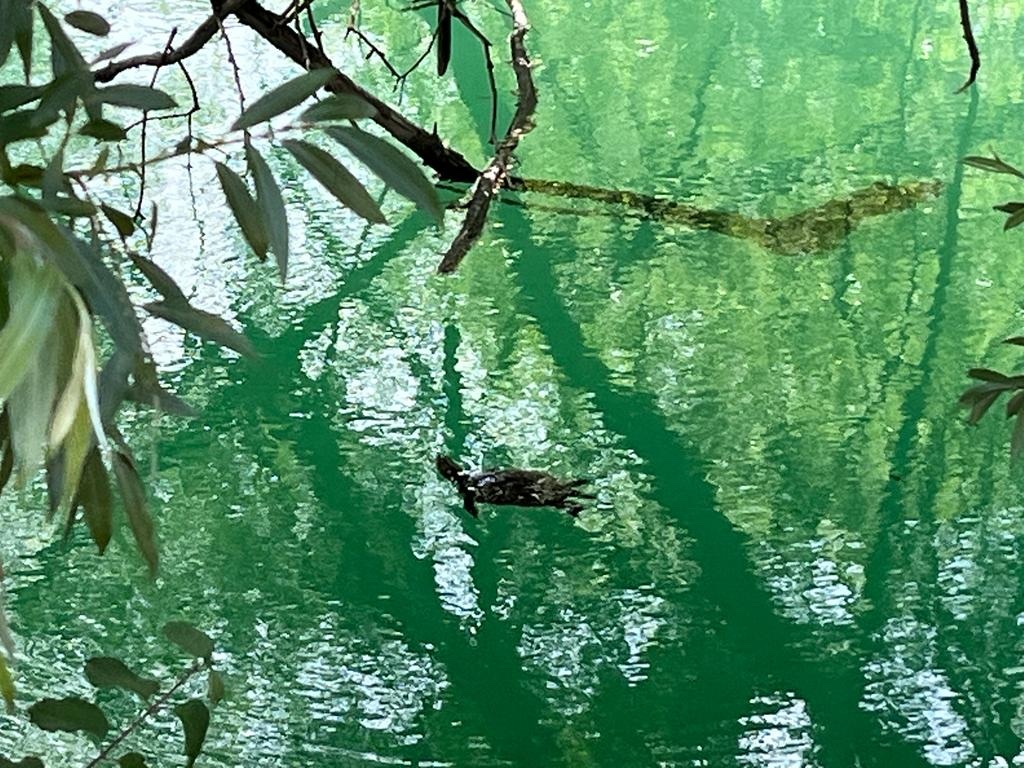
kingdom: Animalia
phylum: Chordata
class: Testudines
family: Emydidae
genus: Emys
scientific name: Emys orbicularis
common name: European pond turtle
